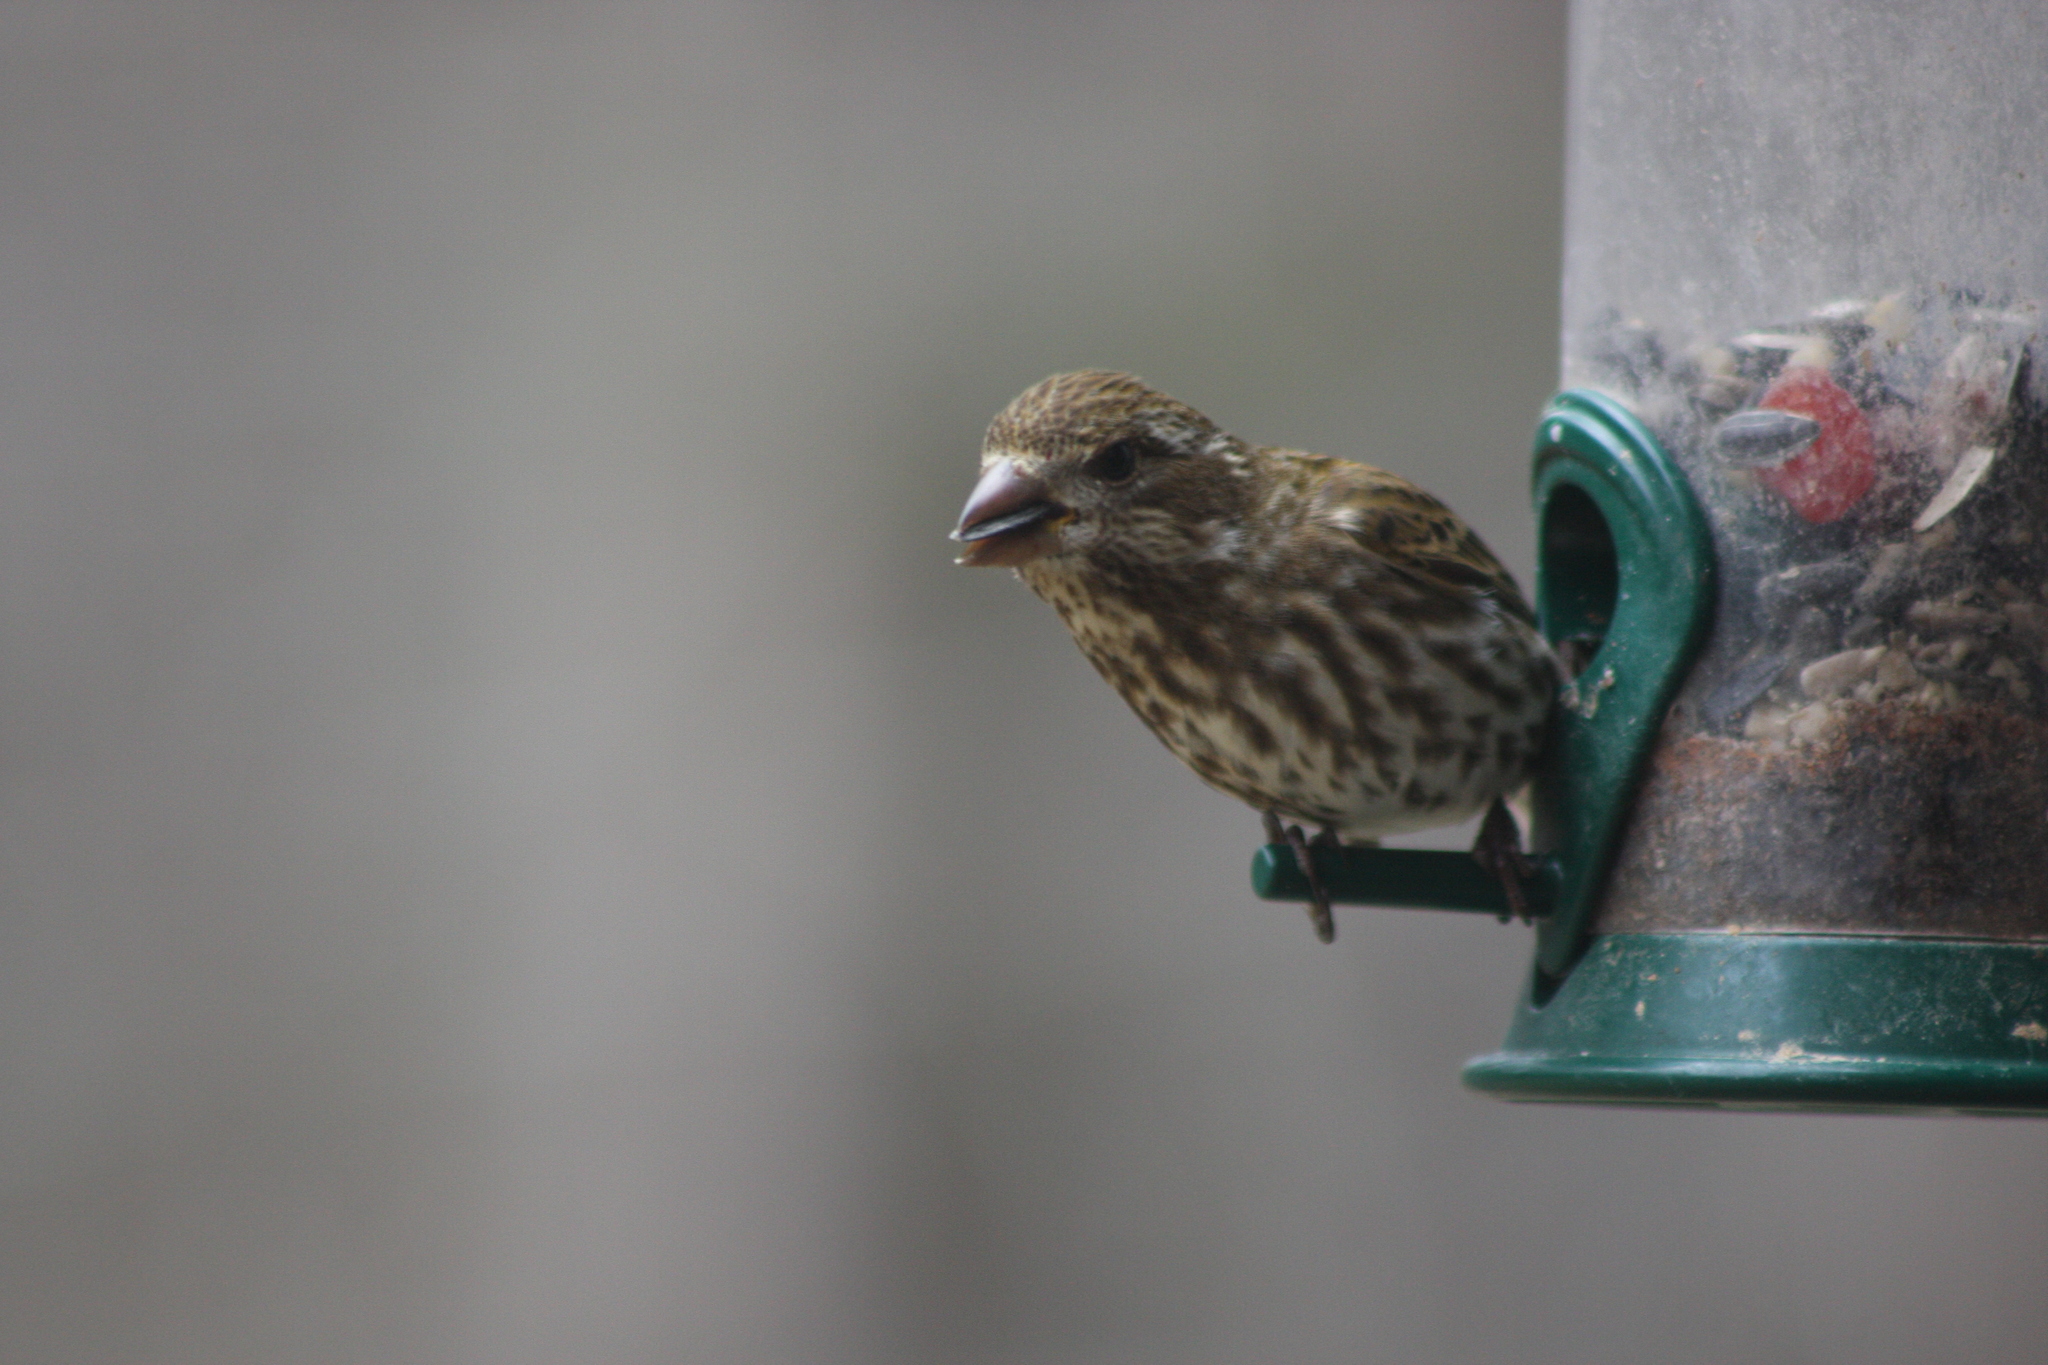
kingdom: Animalia
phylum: Chordata
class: Aves
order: Passeriformes
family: Fringillidae
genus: Haemorhous
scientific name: Haemorhous purpureus
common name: Purple finch
